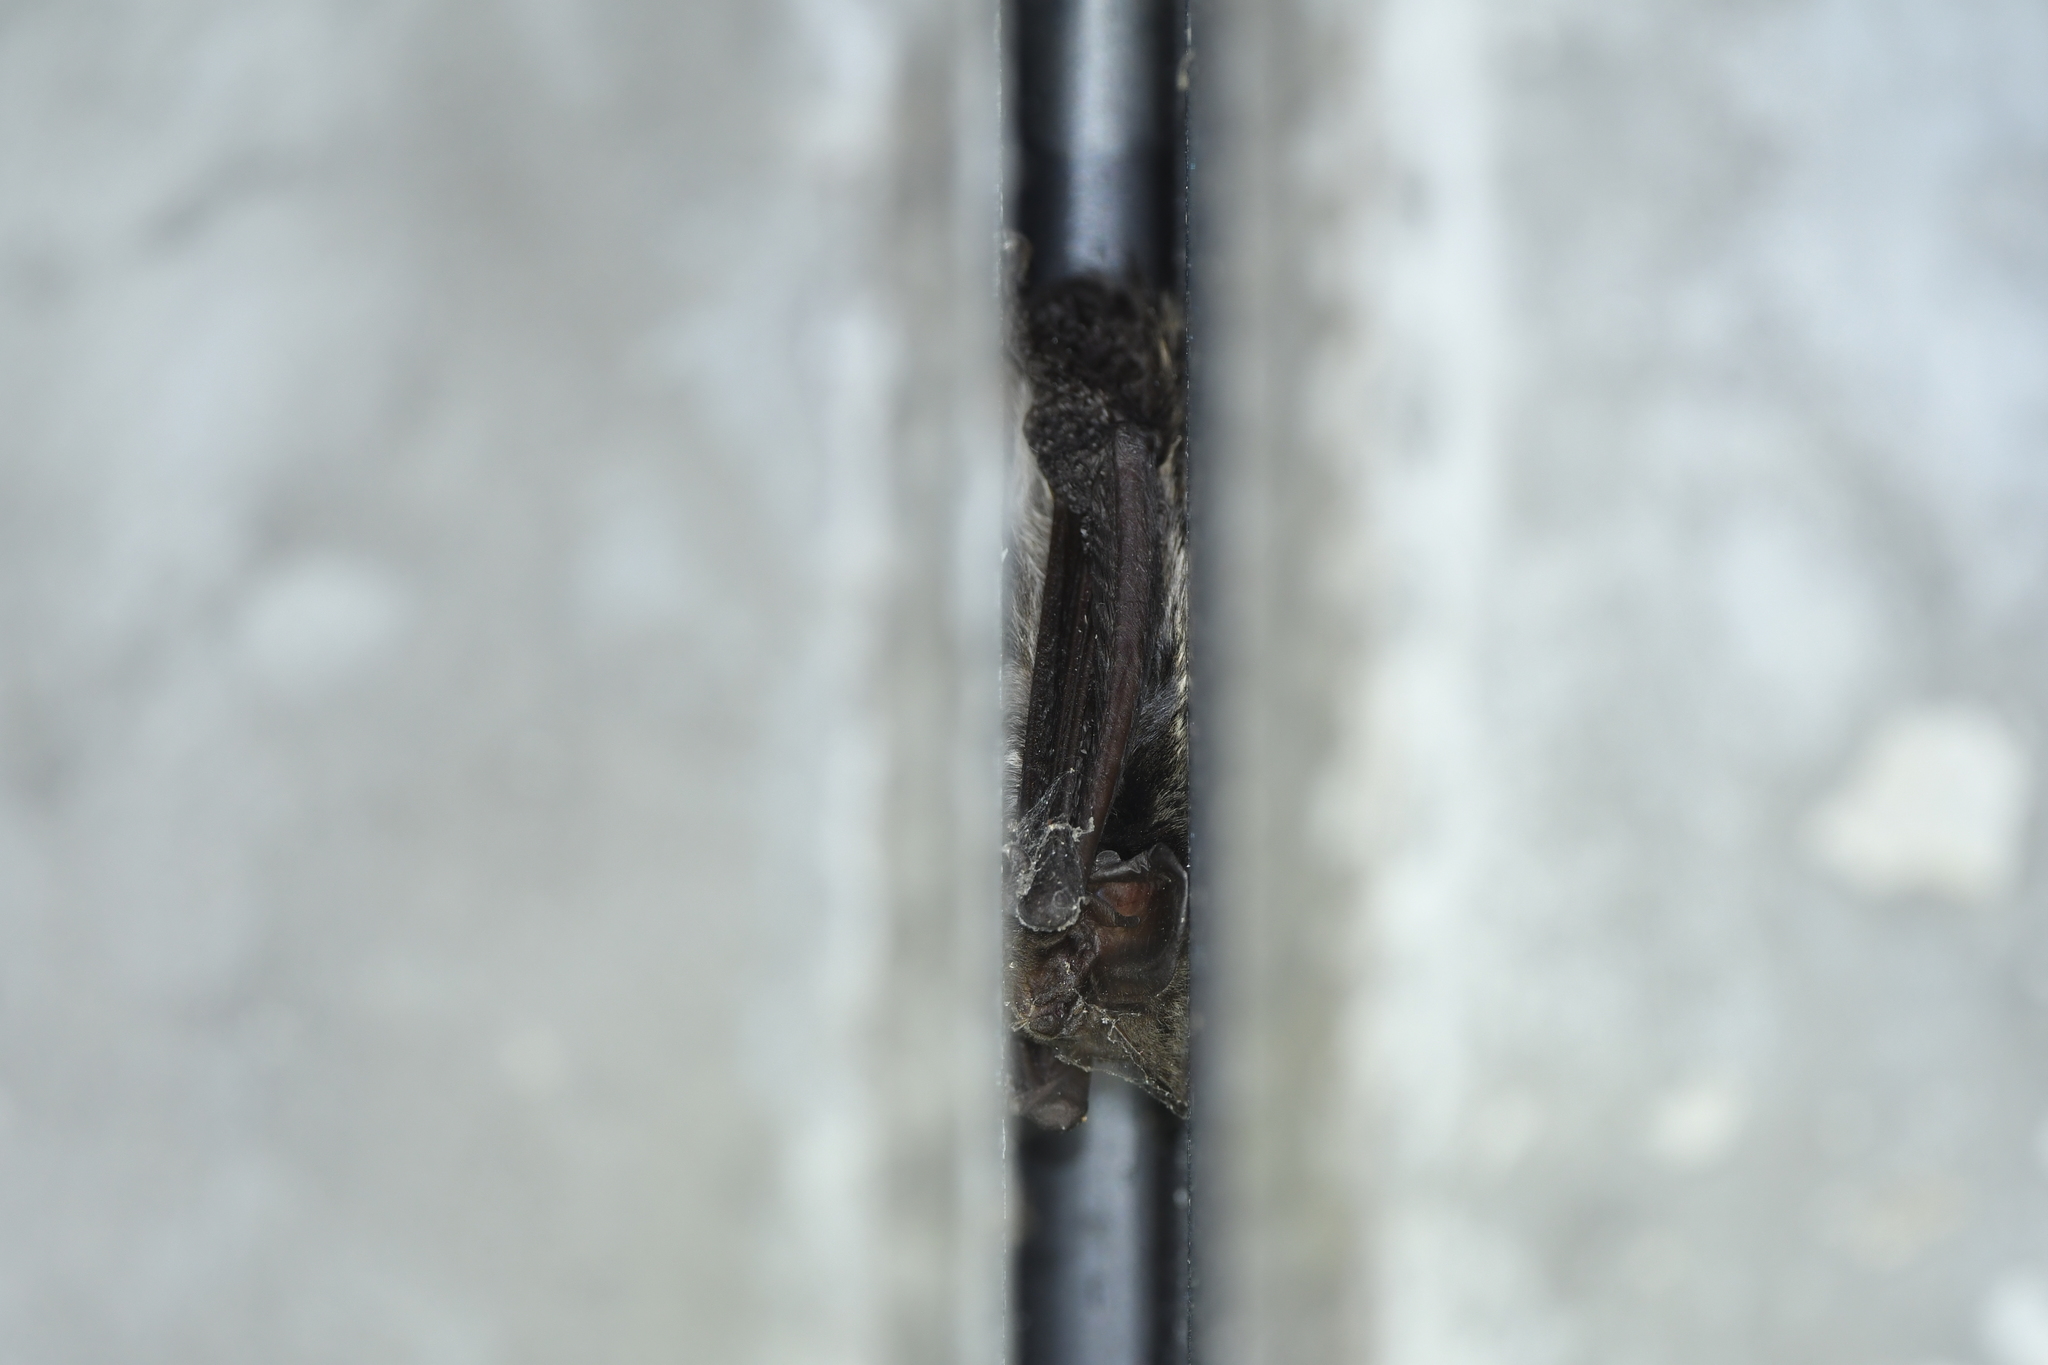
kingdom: Animalia
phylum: Chordata
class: Mammalia
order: Chiroptera
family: Vespertilionidae
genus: Barbastella
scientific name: Barbastella barbastellus
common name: Western barbastelle
